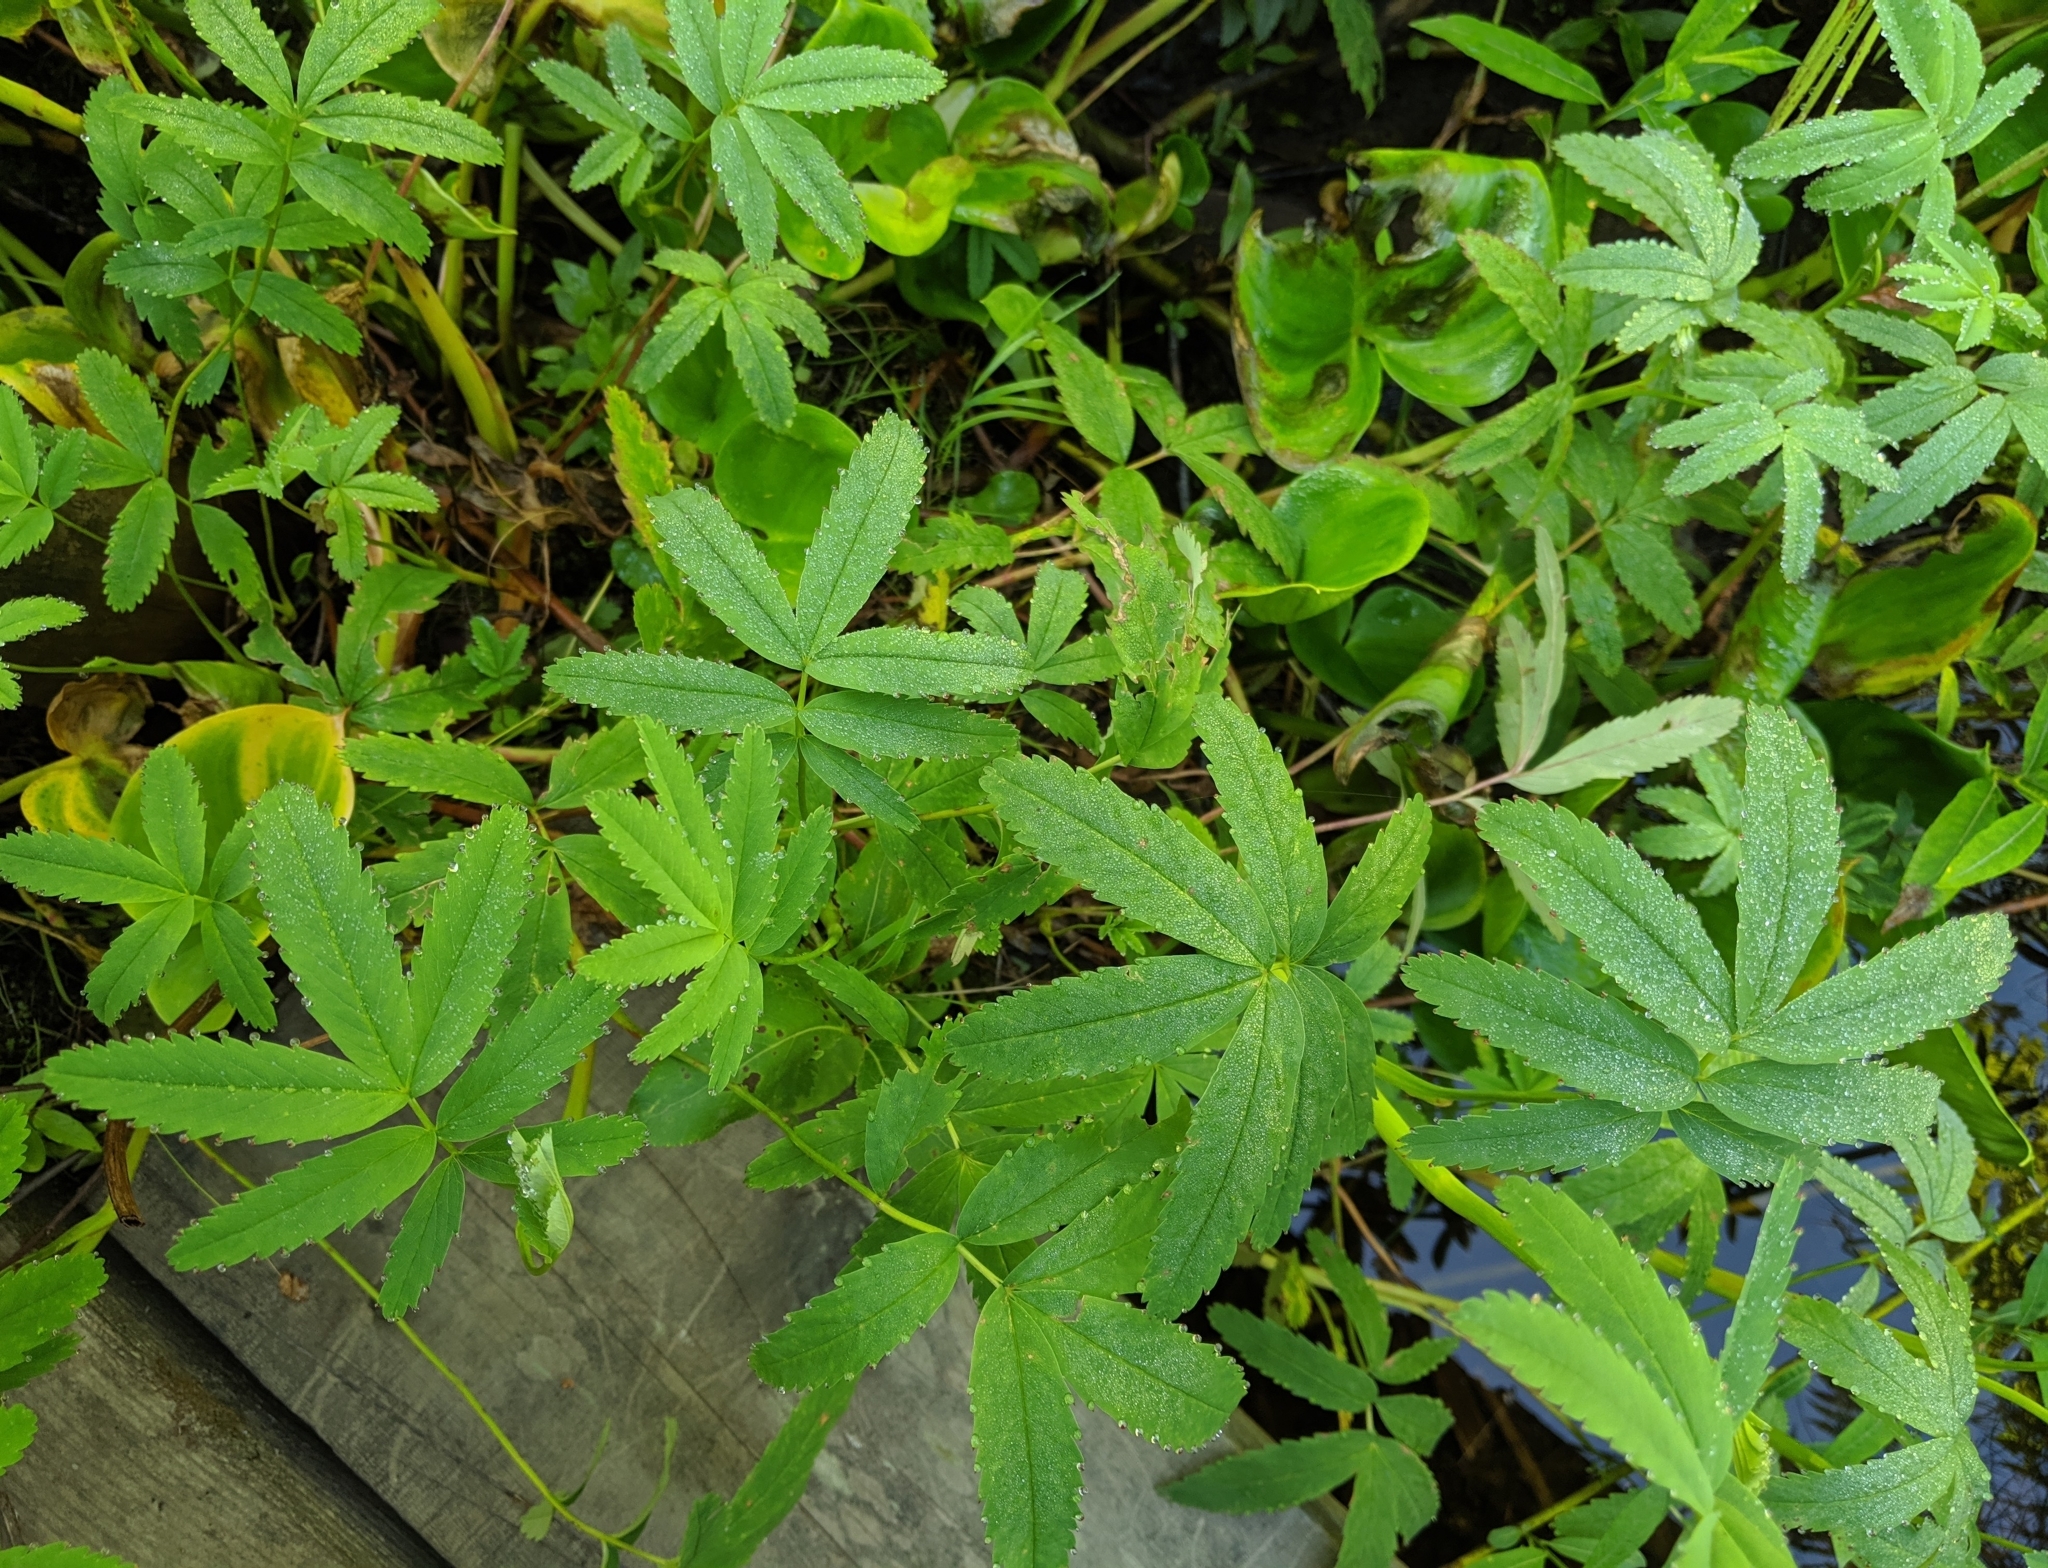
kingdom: Plantae
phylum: Tracheophyta
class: Magnoliopsida
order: Rosales
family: Rosaceae
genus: Comarum
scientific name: Comarum palustre
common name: Marsh cinquefoil
